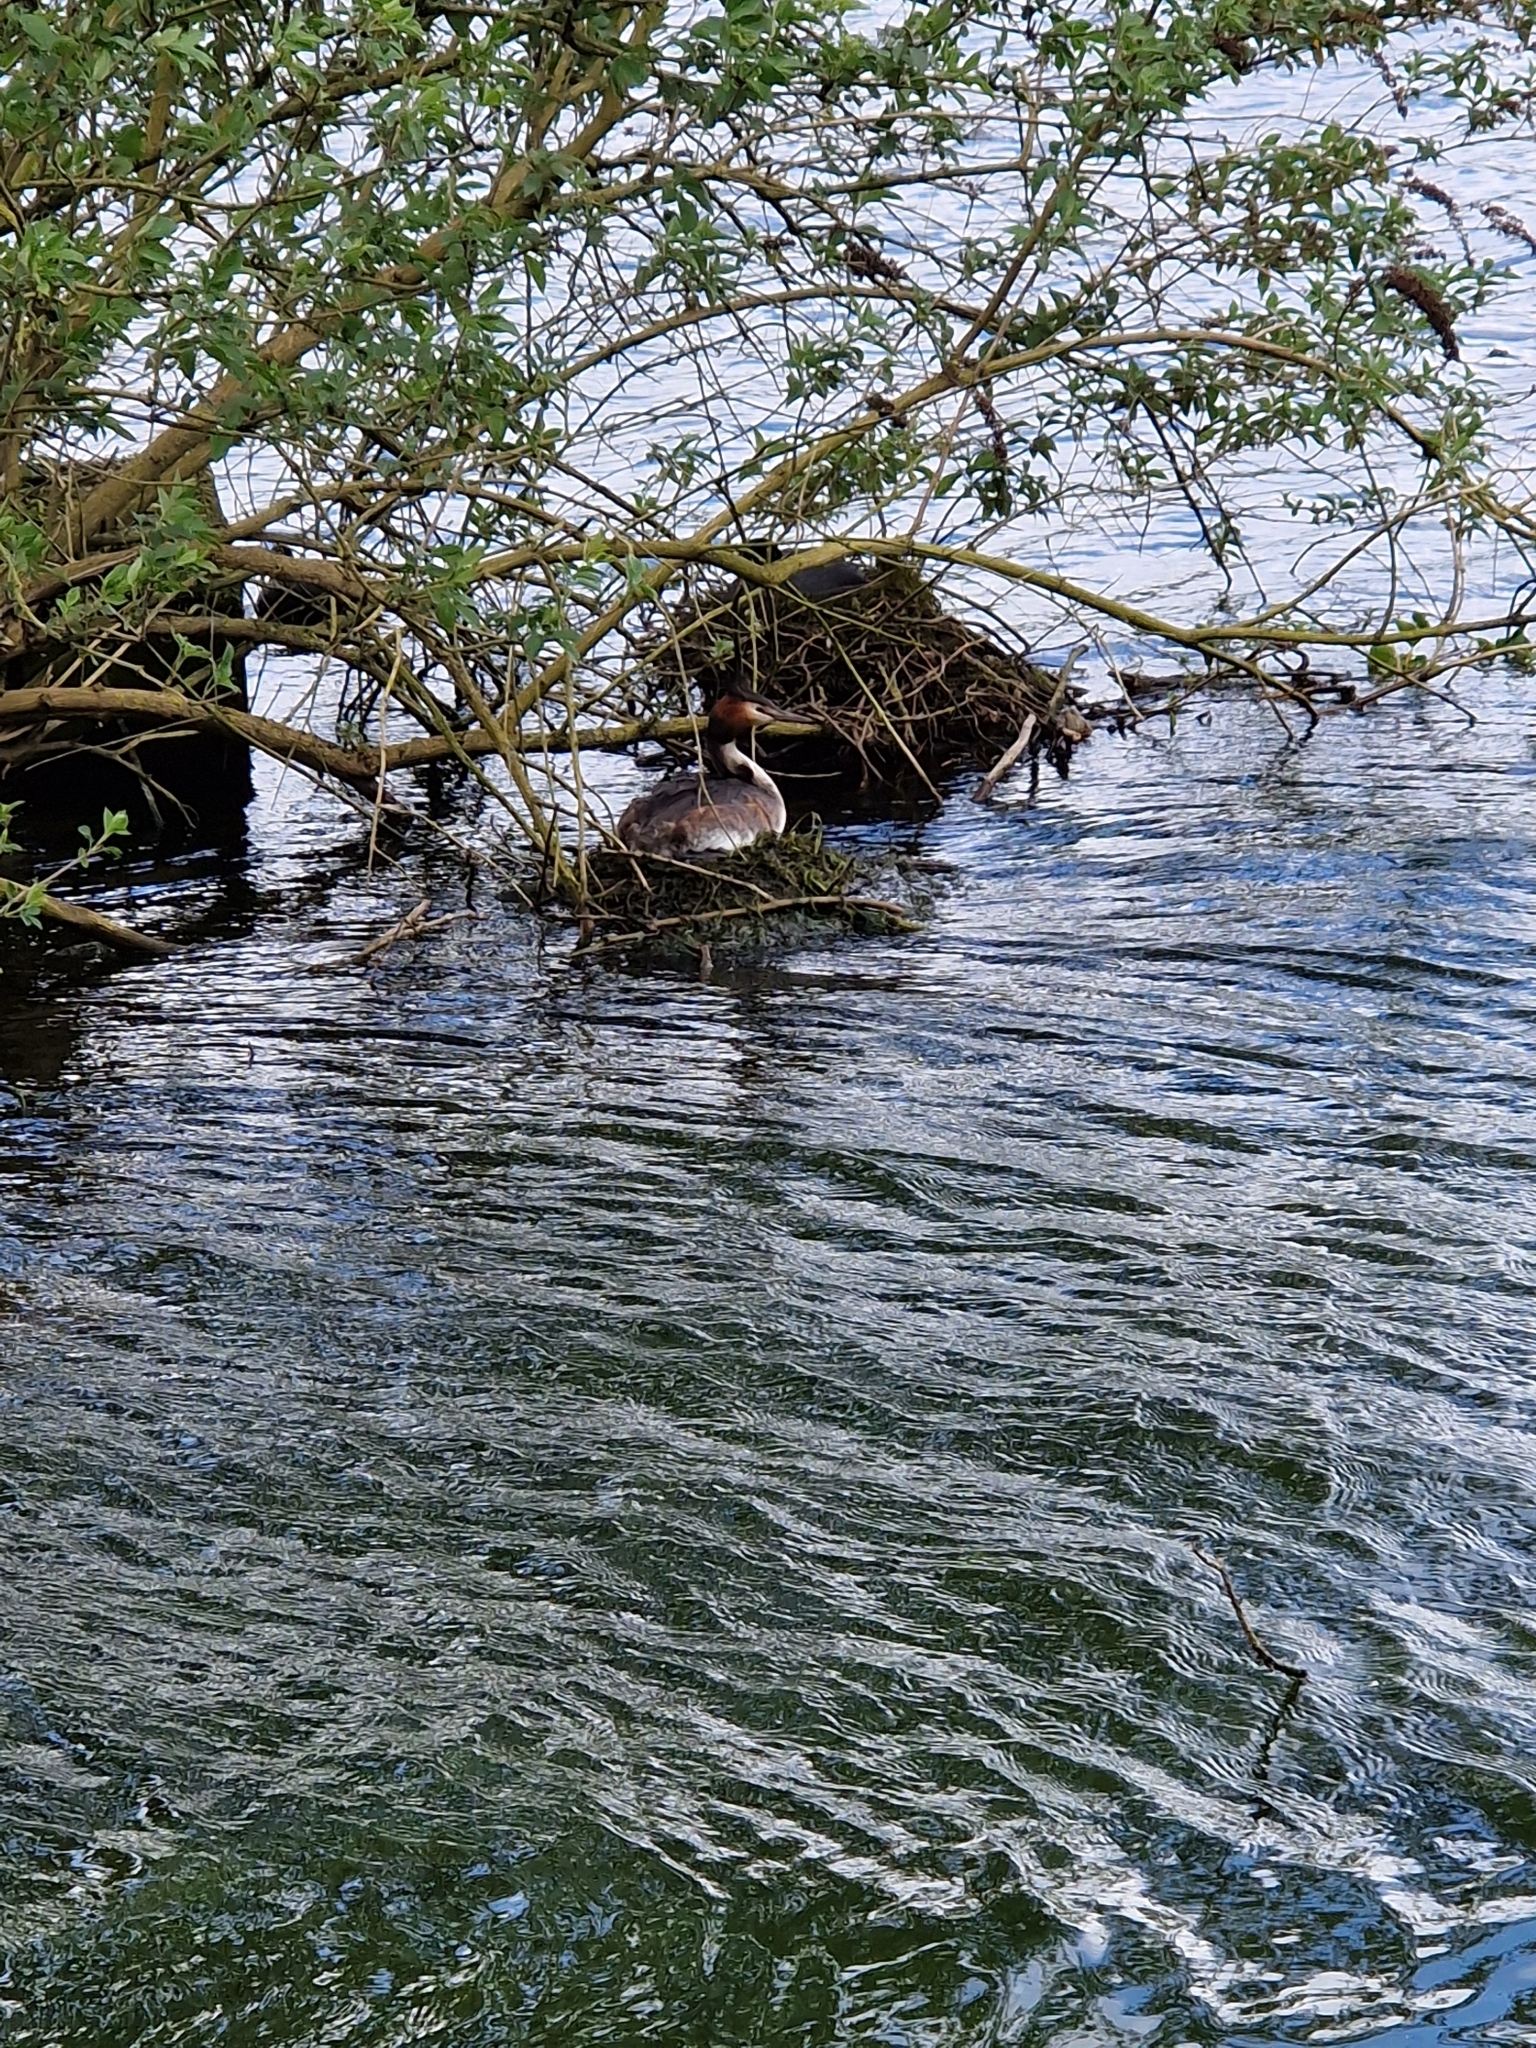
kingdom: Animalia
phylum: Chordata
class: Aves
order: Podicipediformes
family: Podicipedidae
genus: Podiceps
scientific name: Podiceps cristatus
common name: Great crested grebe
